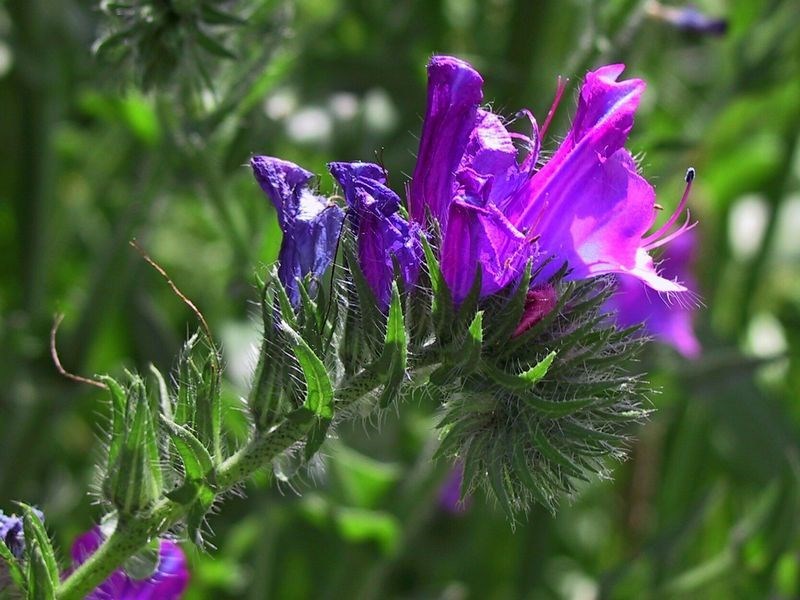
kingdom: Plantae
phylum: Tracheophyta
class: Magnoliopsida
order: Boraginales
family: Boraginaceae
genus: Echium
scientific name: Echium plantagineum
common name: Purple viper's-bugloss
